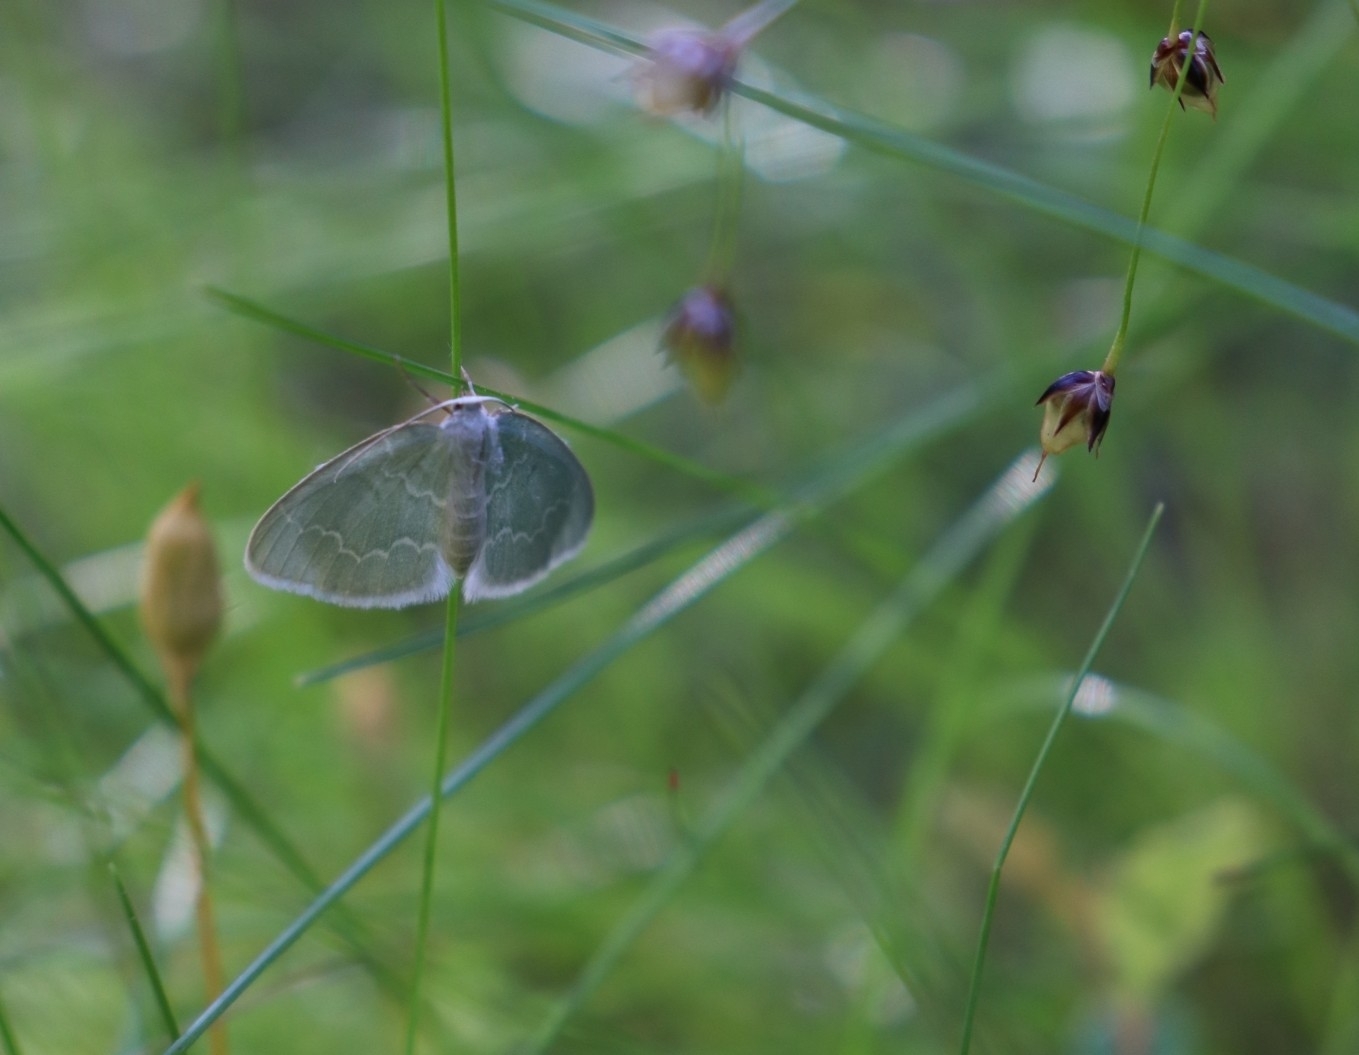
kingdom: Animalia
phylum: Arthropoda
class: Insecta
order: Lepidoptera
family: Geometridae
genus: Jodis
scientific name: Jodis putata
